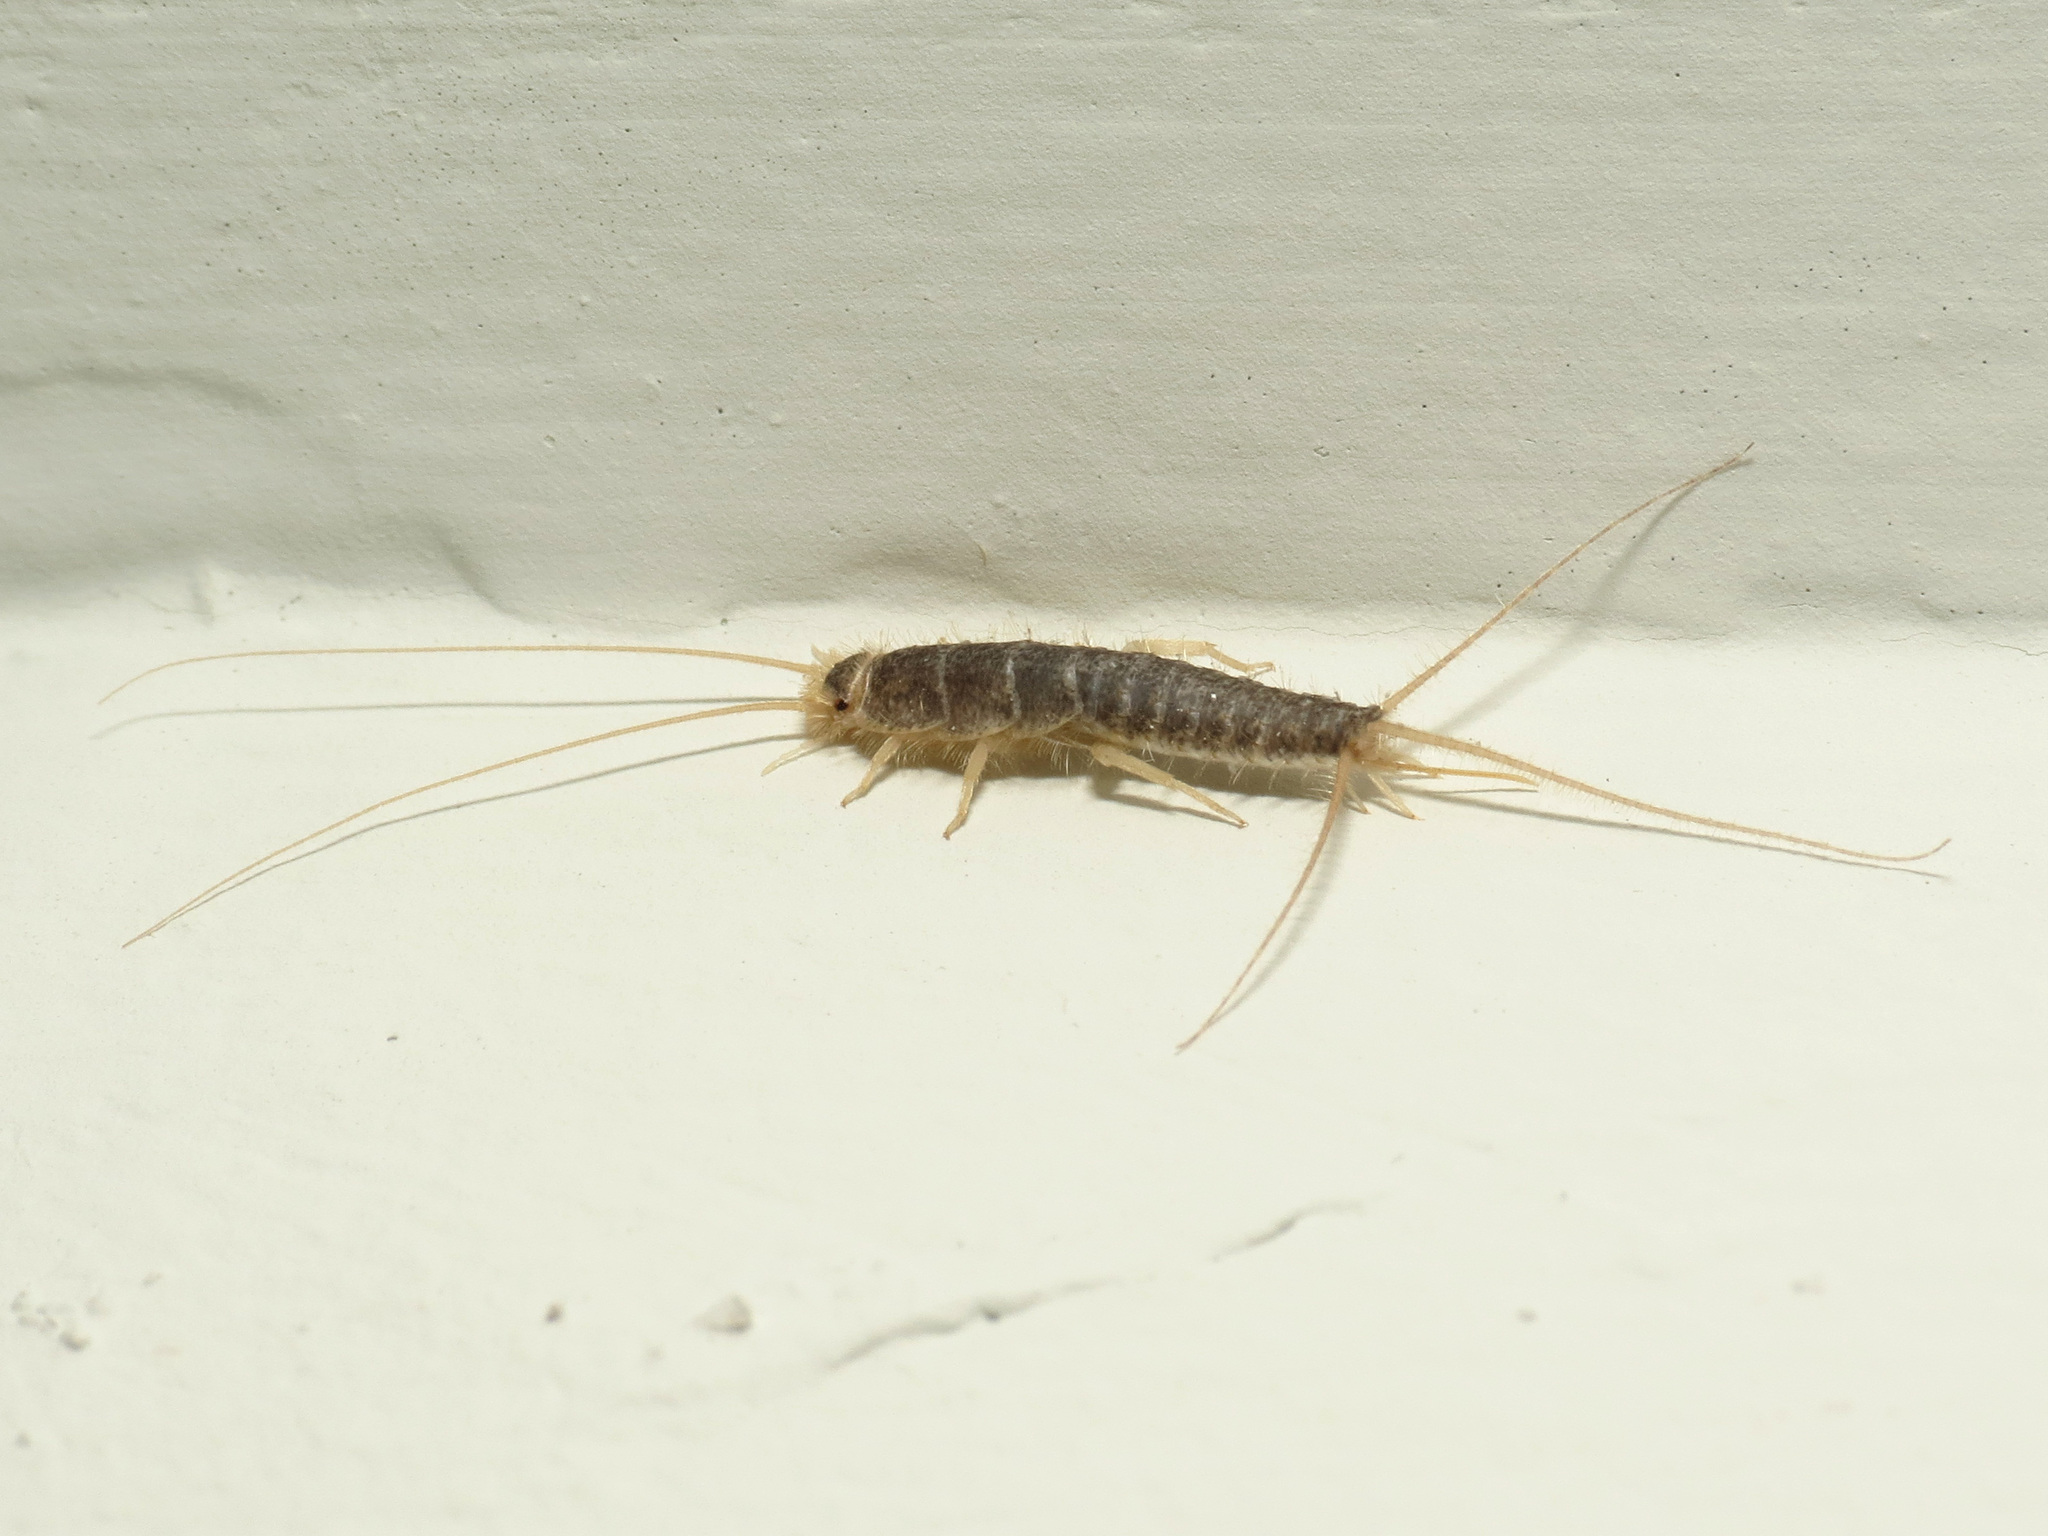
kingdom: Animalia
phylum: Arthropoda
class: Insecta
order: Zygentoma
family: Lepismatidae
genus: Ctenolepisma
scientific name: Ctenolepisma longicaudatum
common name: Silverfish
